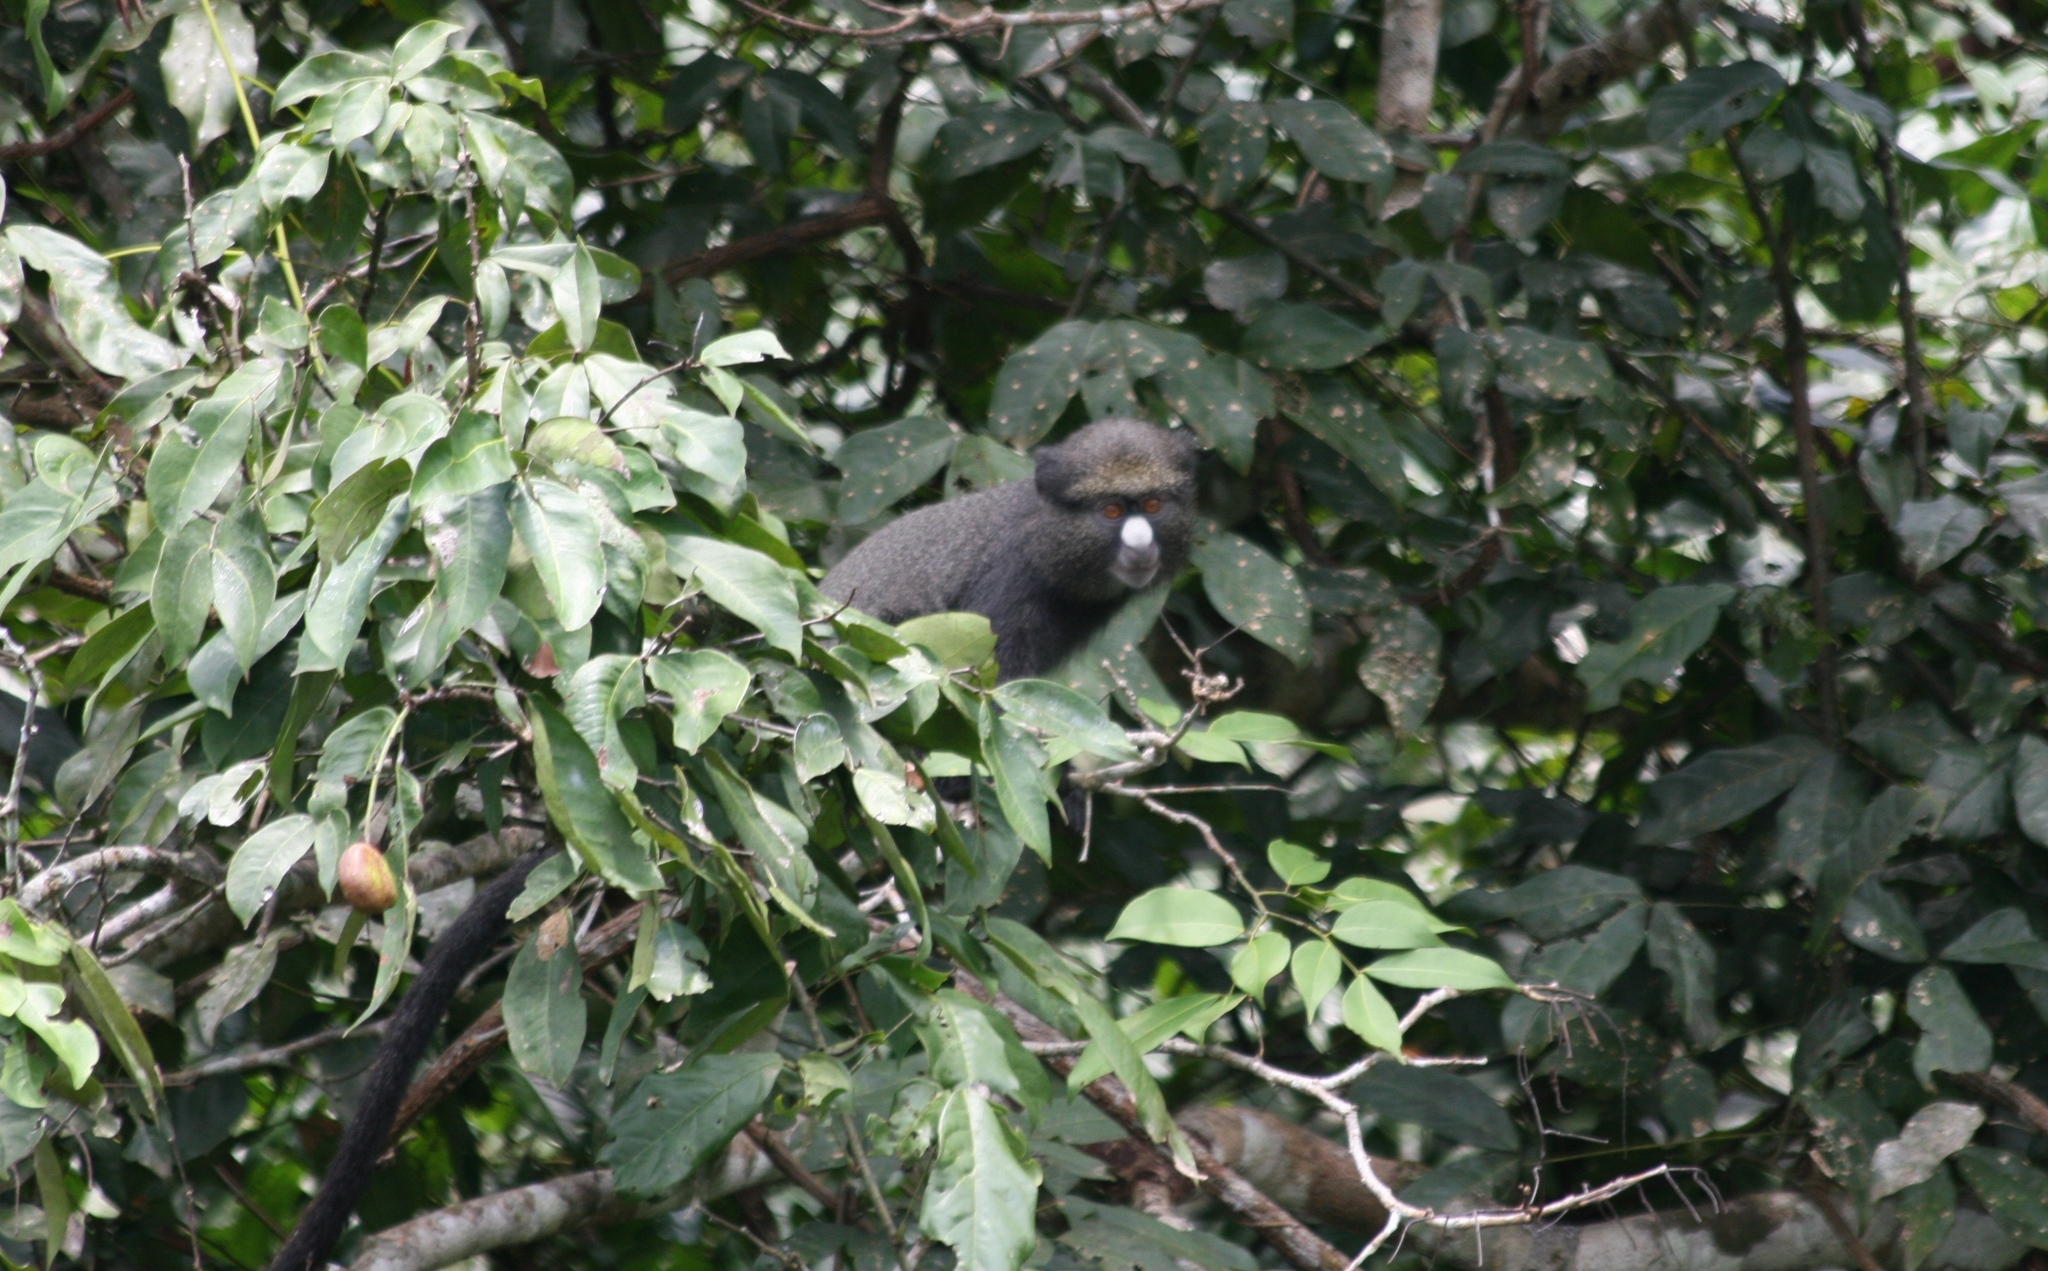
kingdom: Animalia
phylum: Chordata
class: Mammalia
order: Primates
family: Cercopithecidae
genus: Cercopithecus
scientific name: Cercopithecus nictitans
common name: Greater spot-nosed monkey
